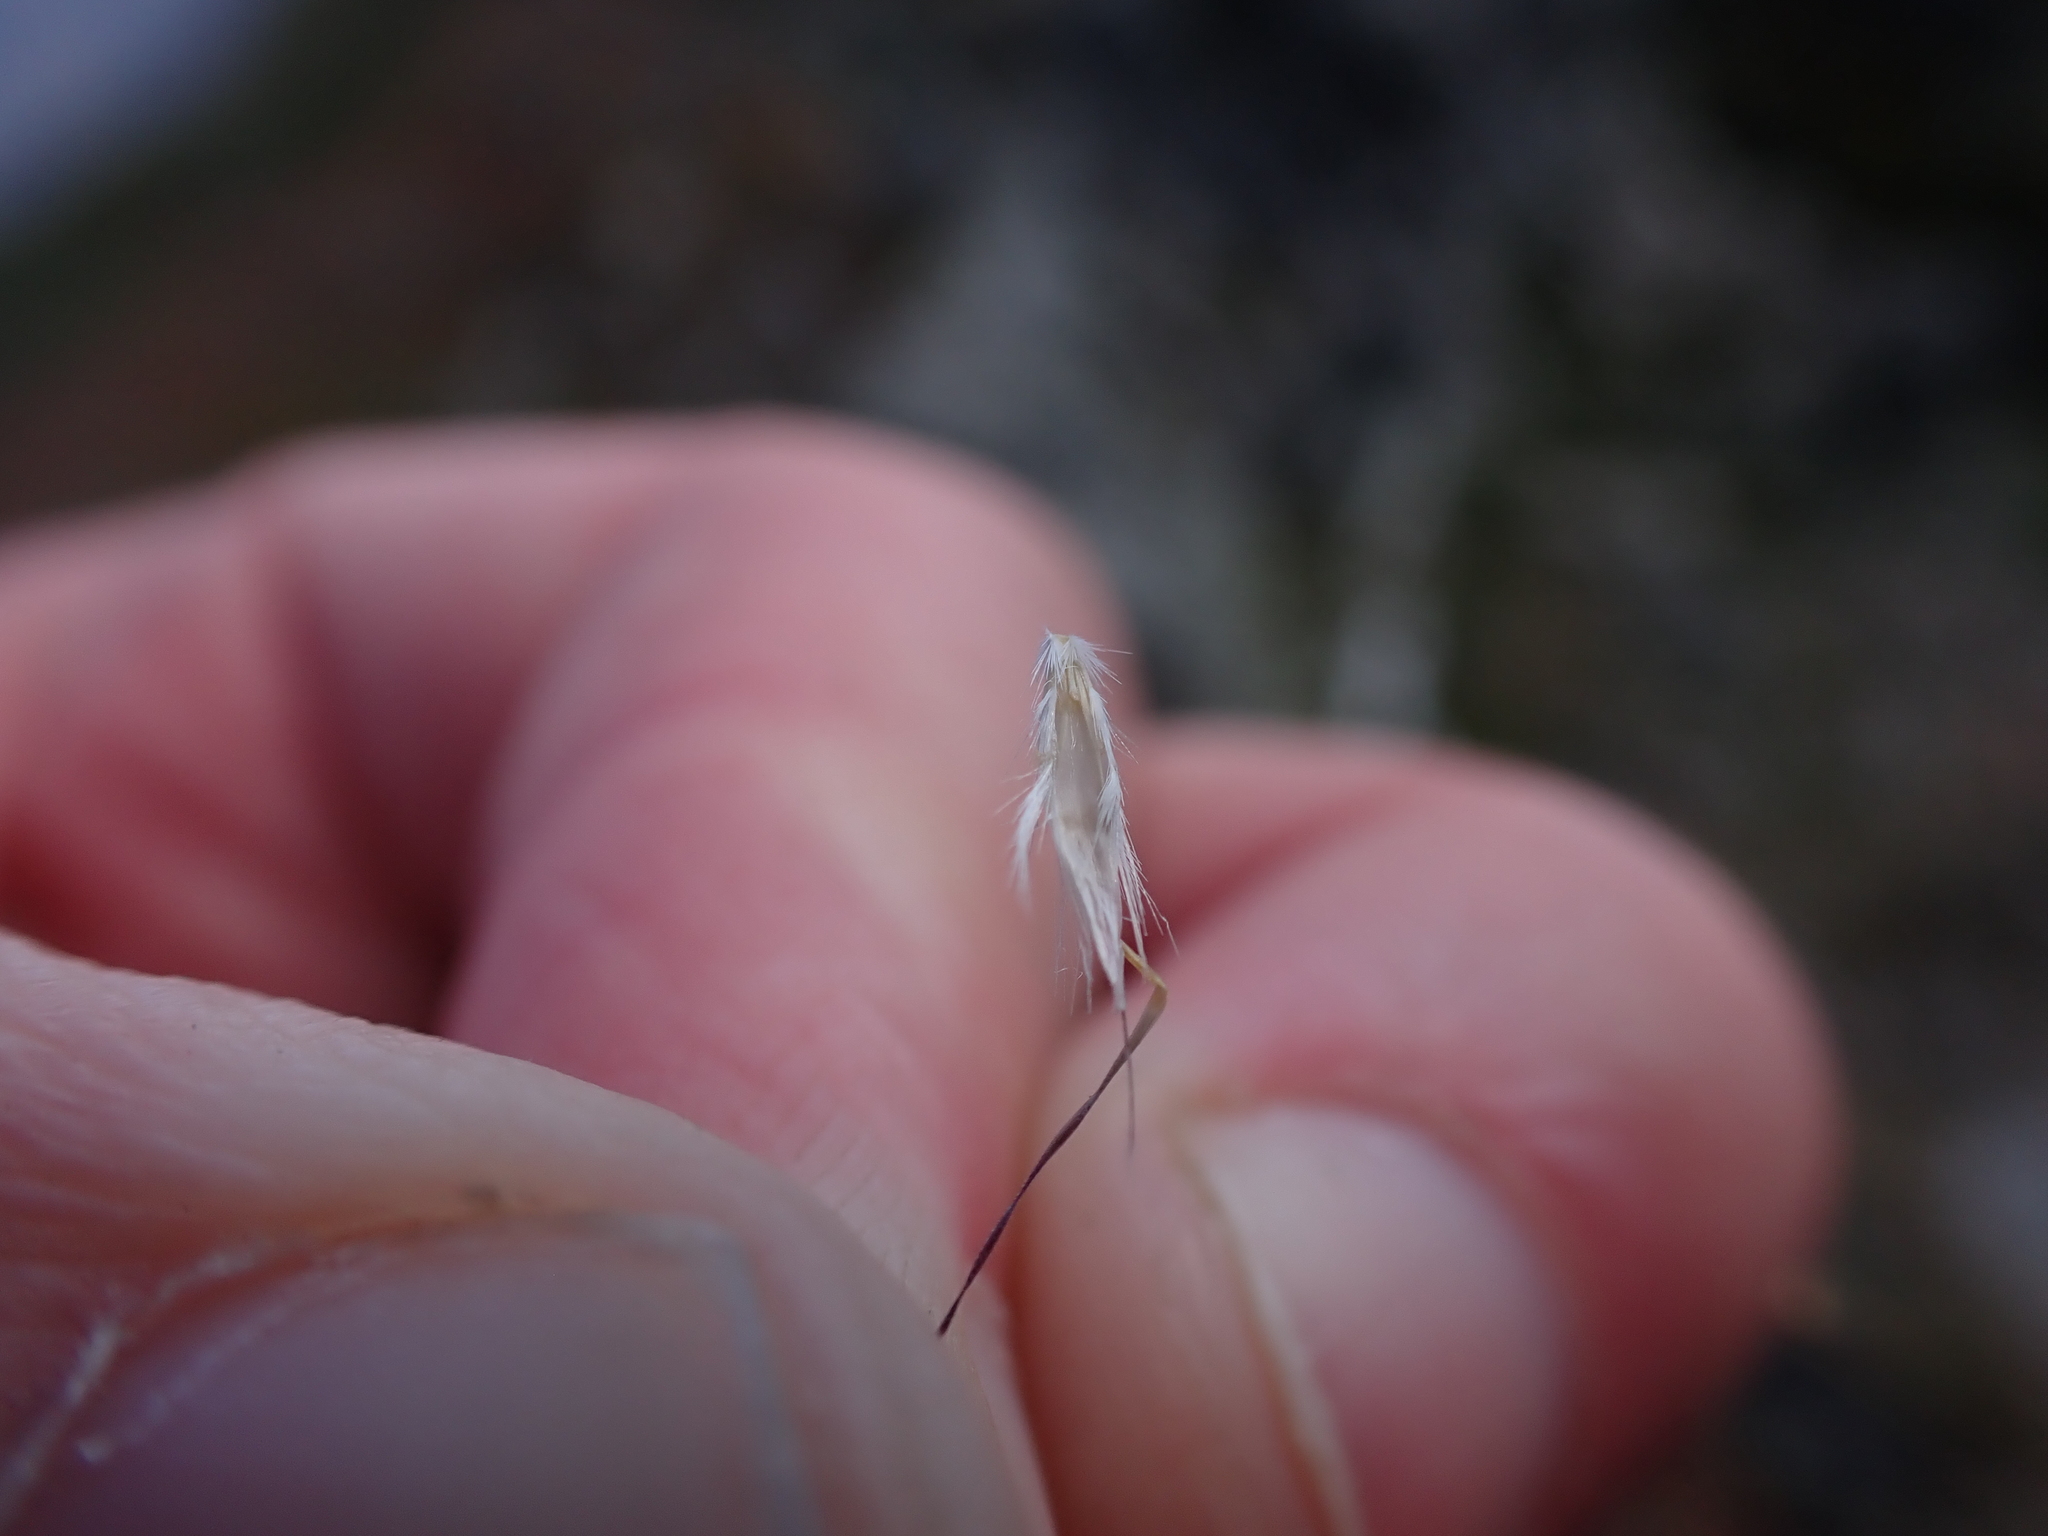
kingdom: Plantae
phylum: Tracheophyta
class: Liliopsida
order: Poales
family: Poaceae
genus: Rytidosperma
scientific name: Rytidosperma alpicola
